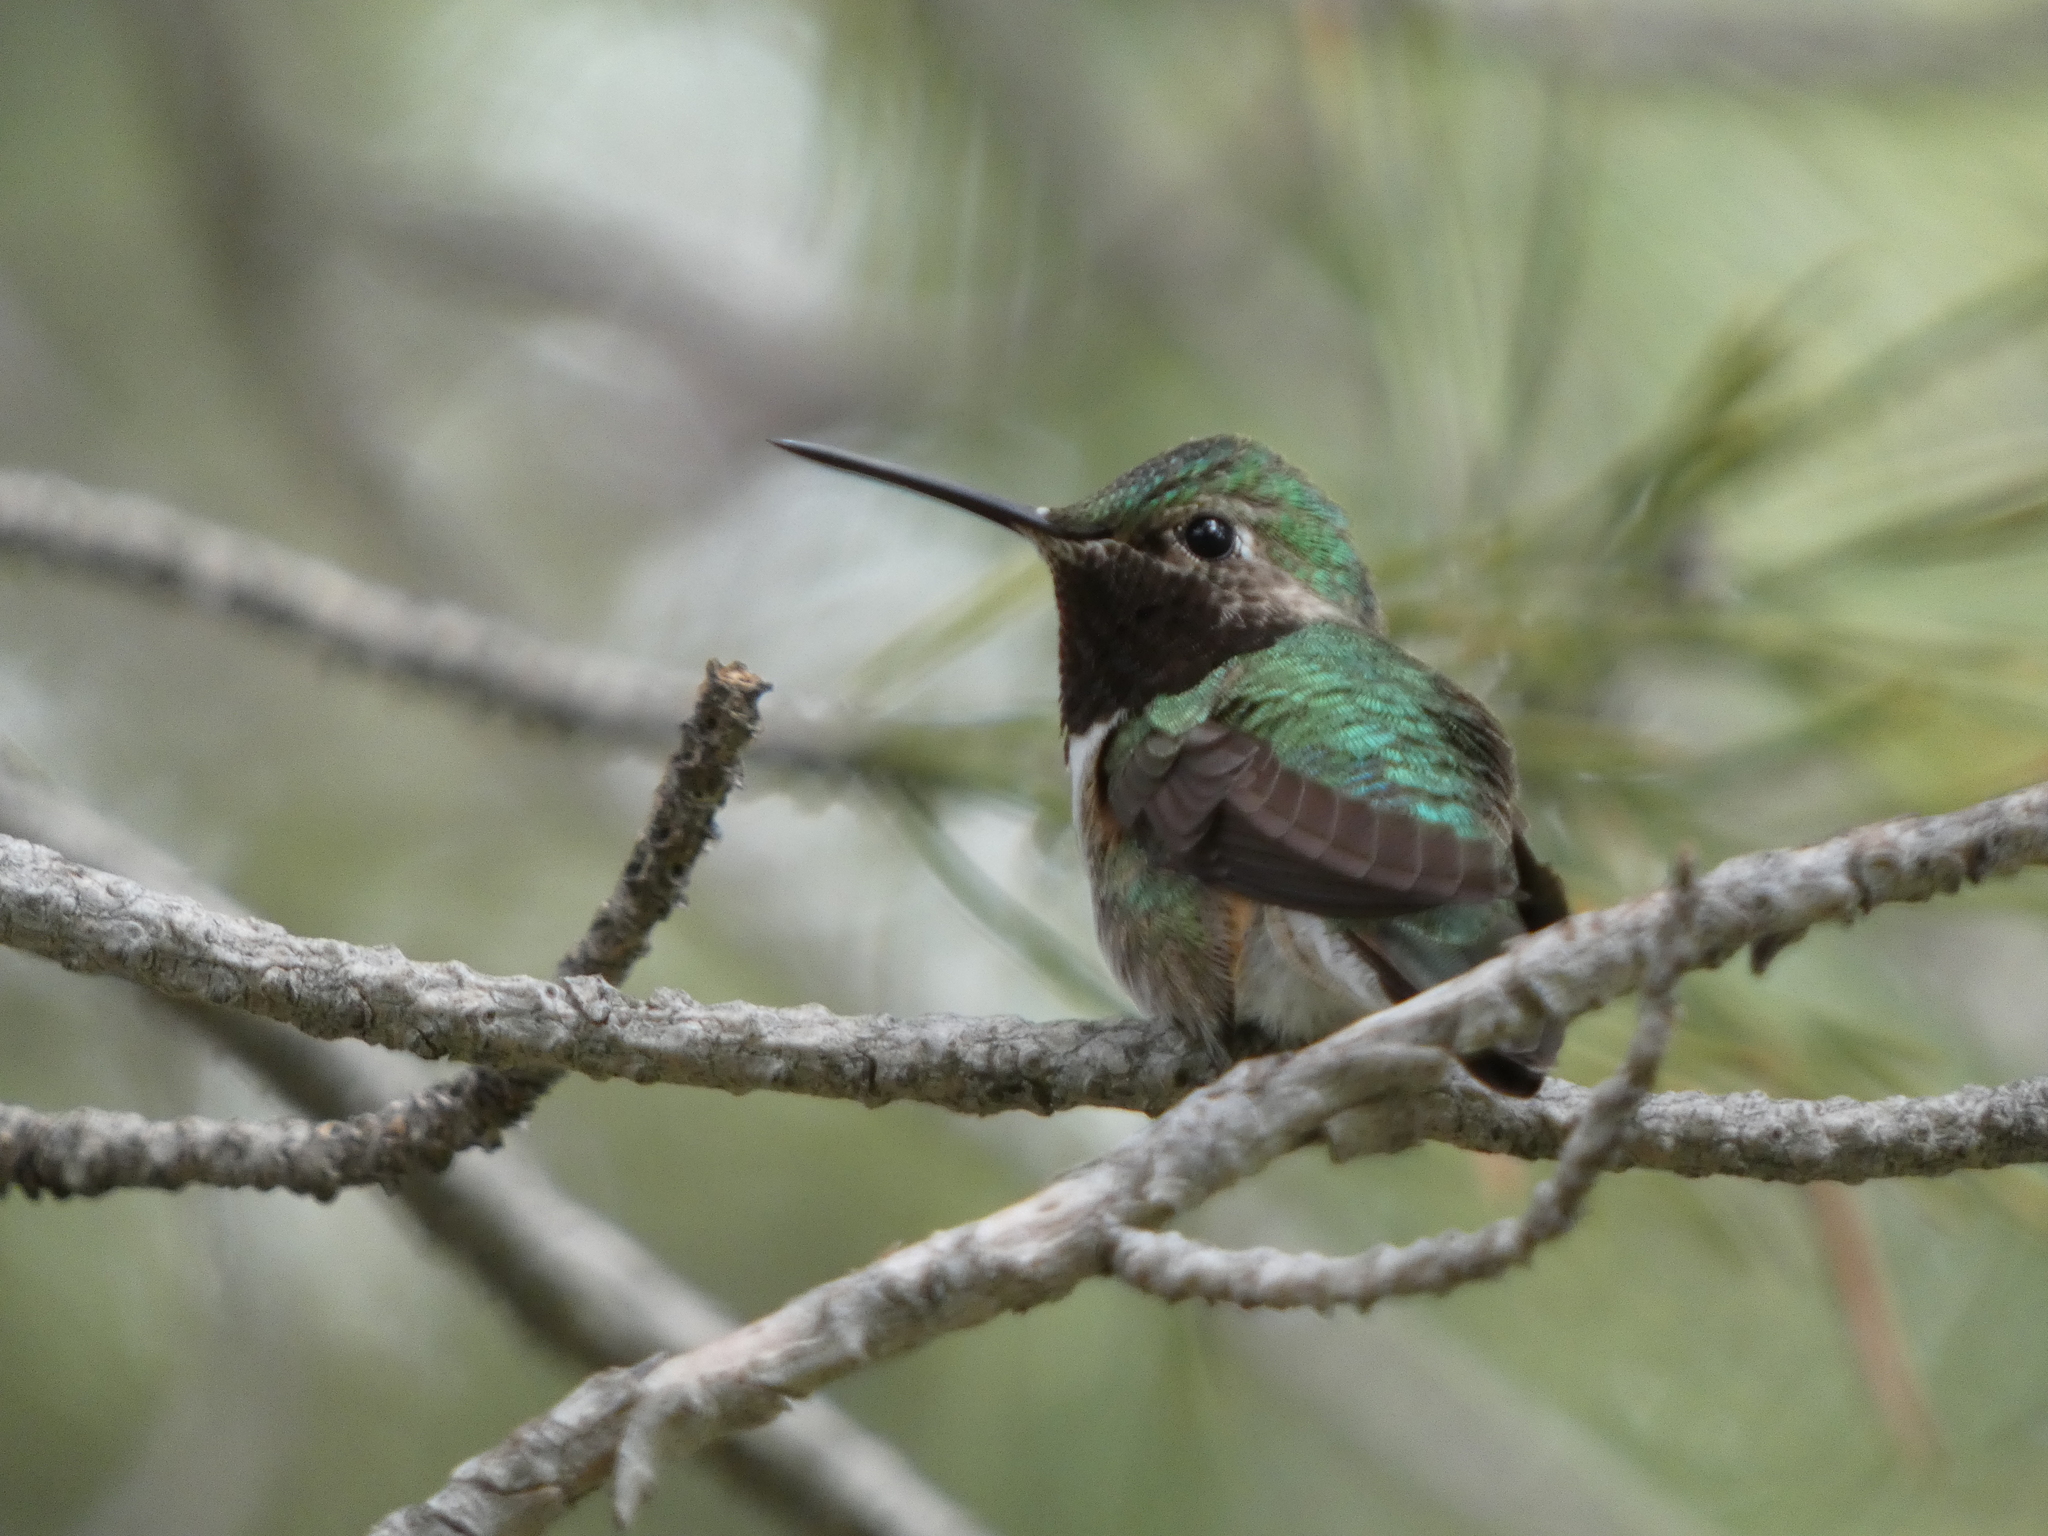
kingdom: Animalia
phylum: Chordata
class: Aves
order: Apodiformes
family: Trochilidae
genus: Selasphorus
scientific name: Selasphorus platycercus
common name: Broad-tailed hummingbird
